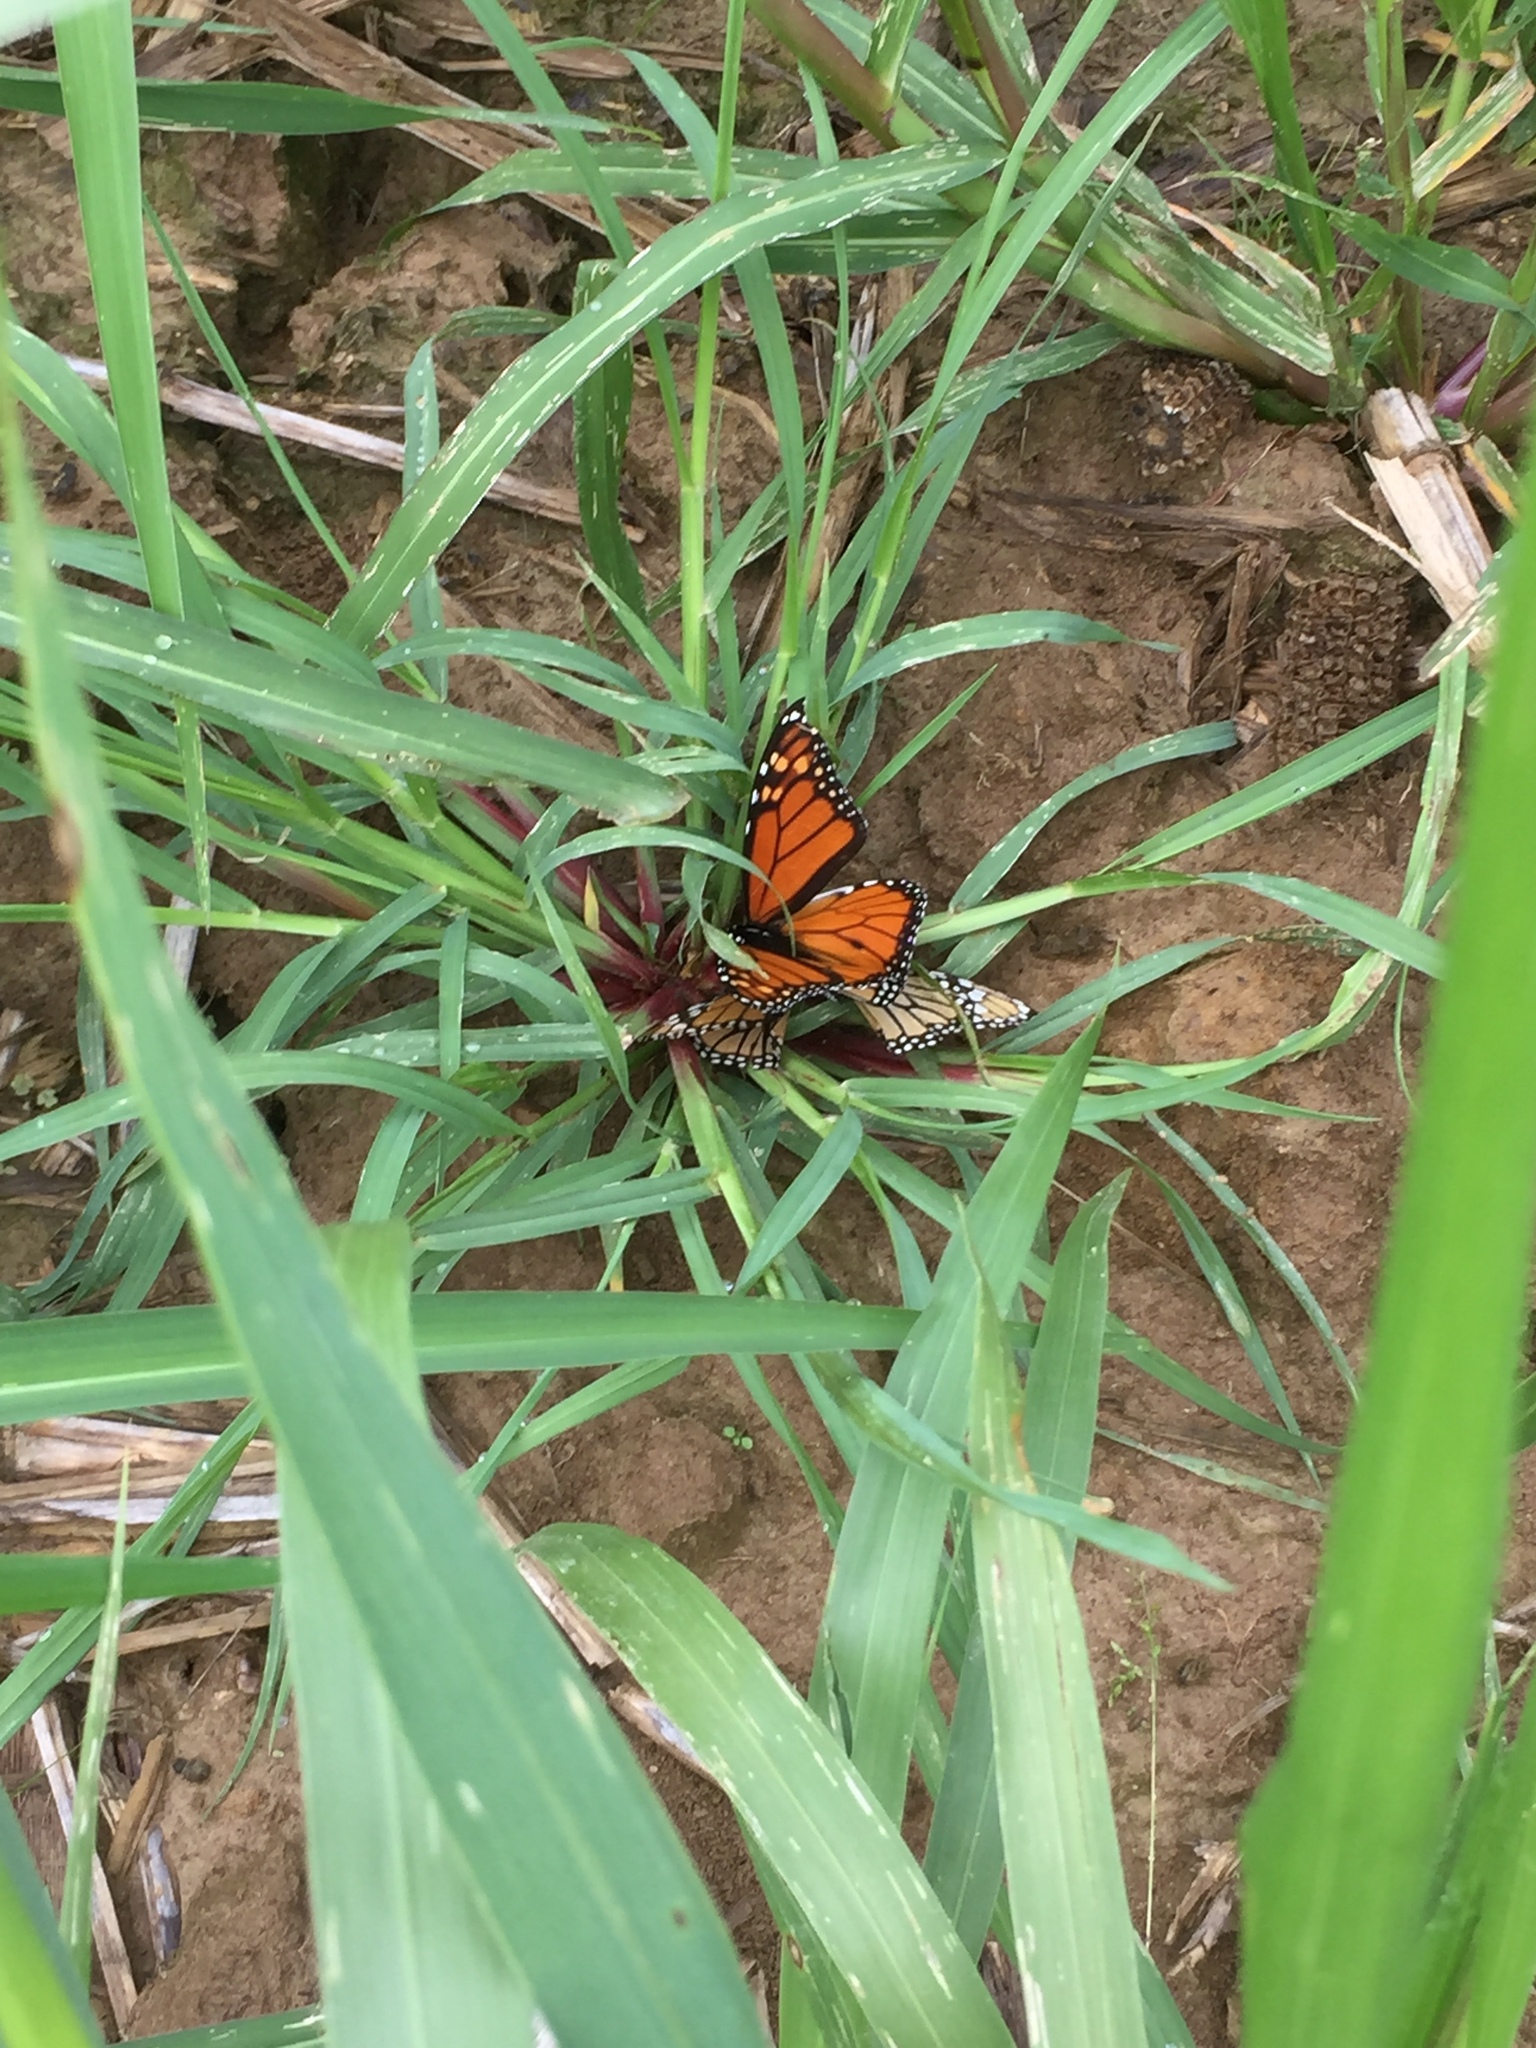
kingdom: Animalia
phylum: Arthropoda
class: Insecta
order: Lepidoptera
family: Nymphalidae
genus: Danaus
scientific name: Danaus plexippus
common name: Monarch
